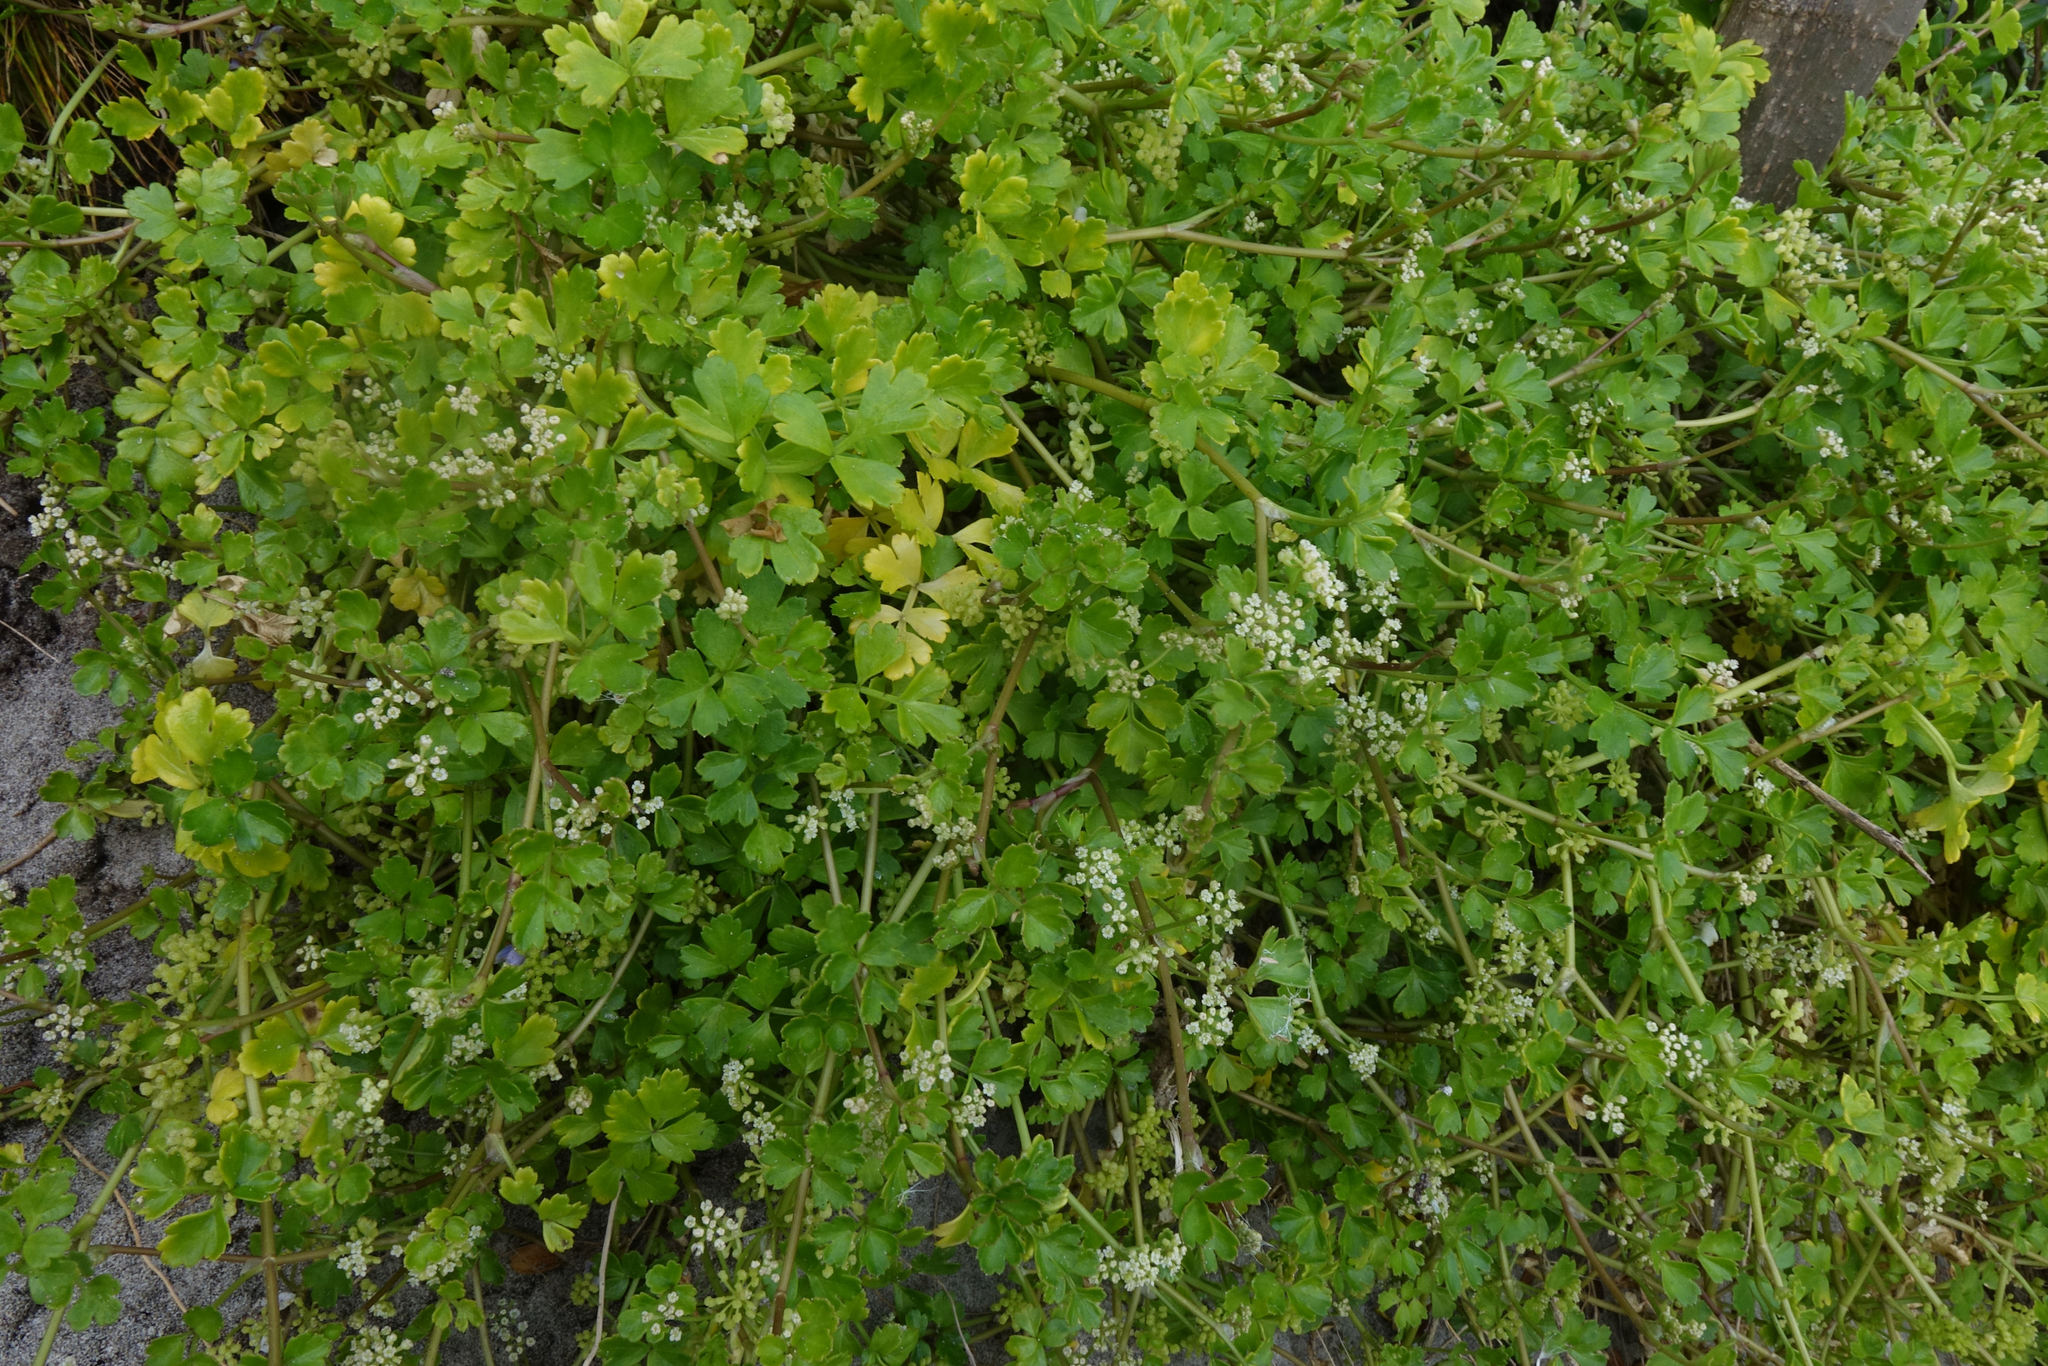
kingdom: Plantae
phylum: Tracheophyta
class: Magnoliopsida
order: Apiales
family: Apiaceae
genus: Apium
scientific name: Apium prostratum
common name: Prostrate marshwort
